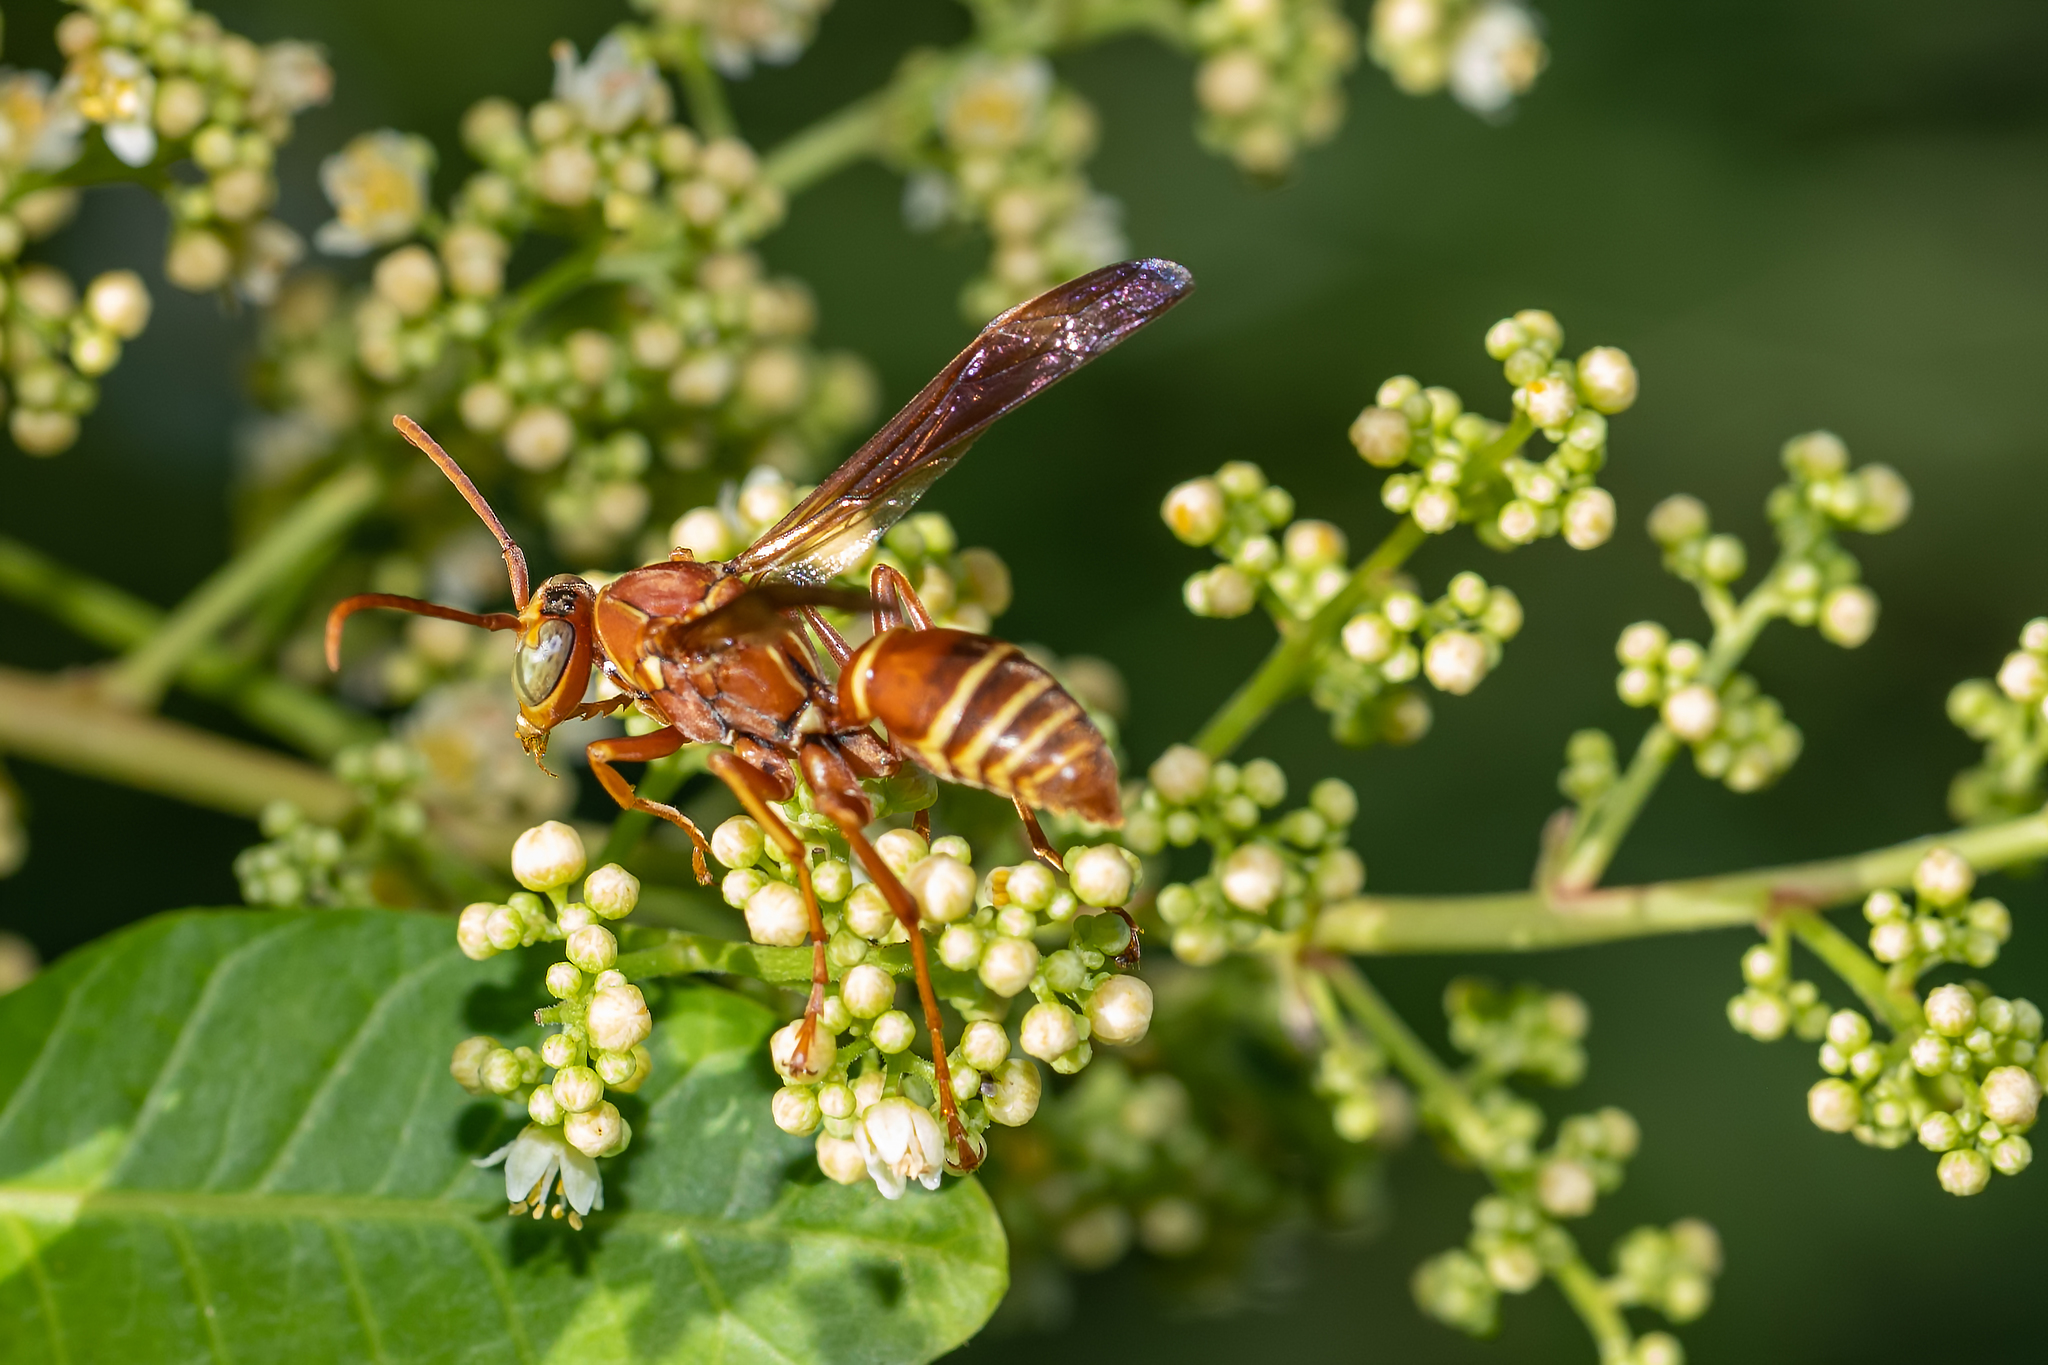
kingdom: Animalia
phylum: Arthropoda
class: Insecta
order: Hymenoptera
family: Eumenidae
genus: Polistes
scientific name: Polistes bellicosus
